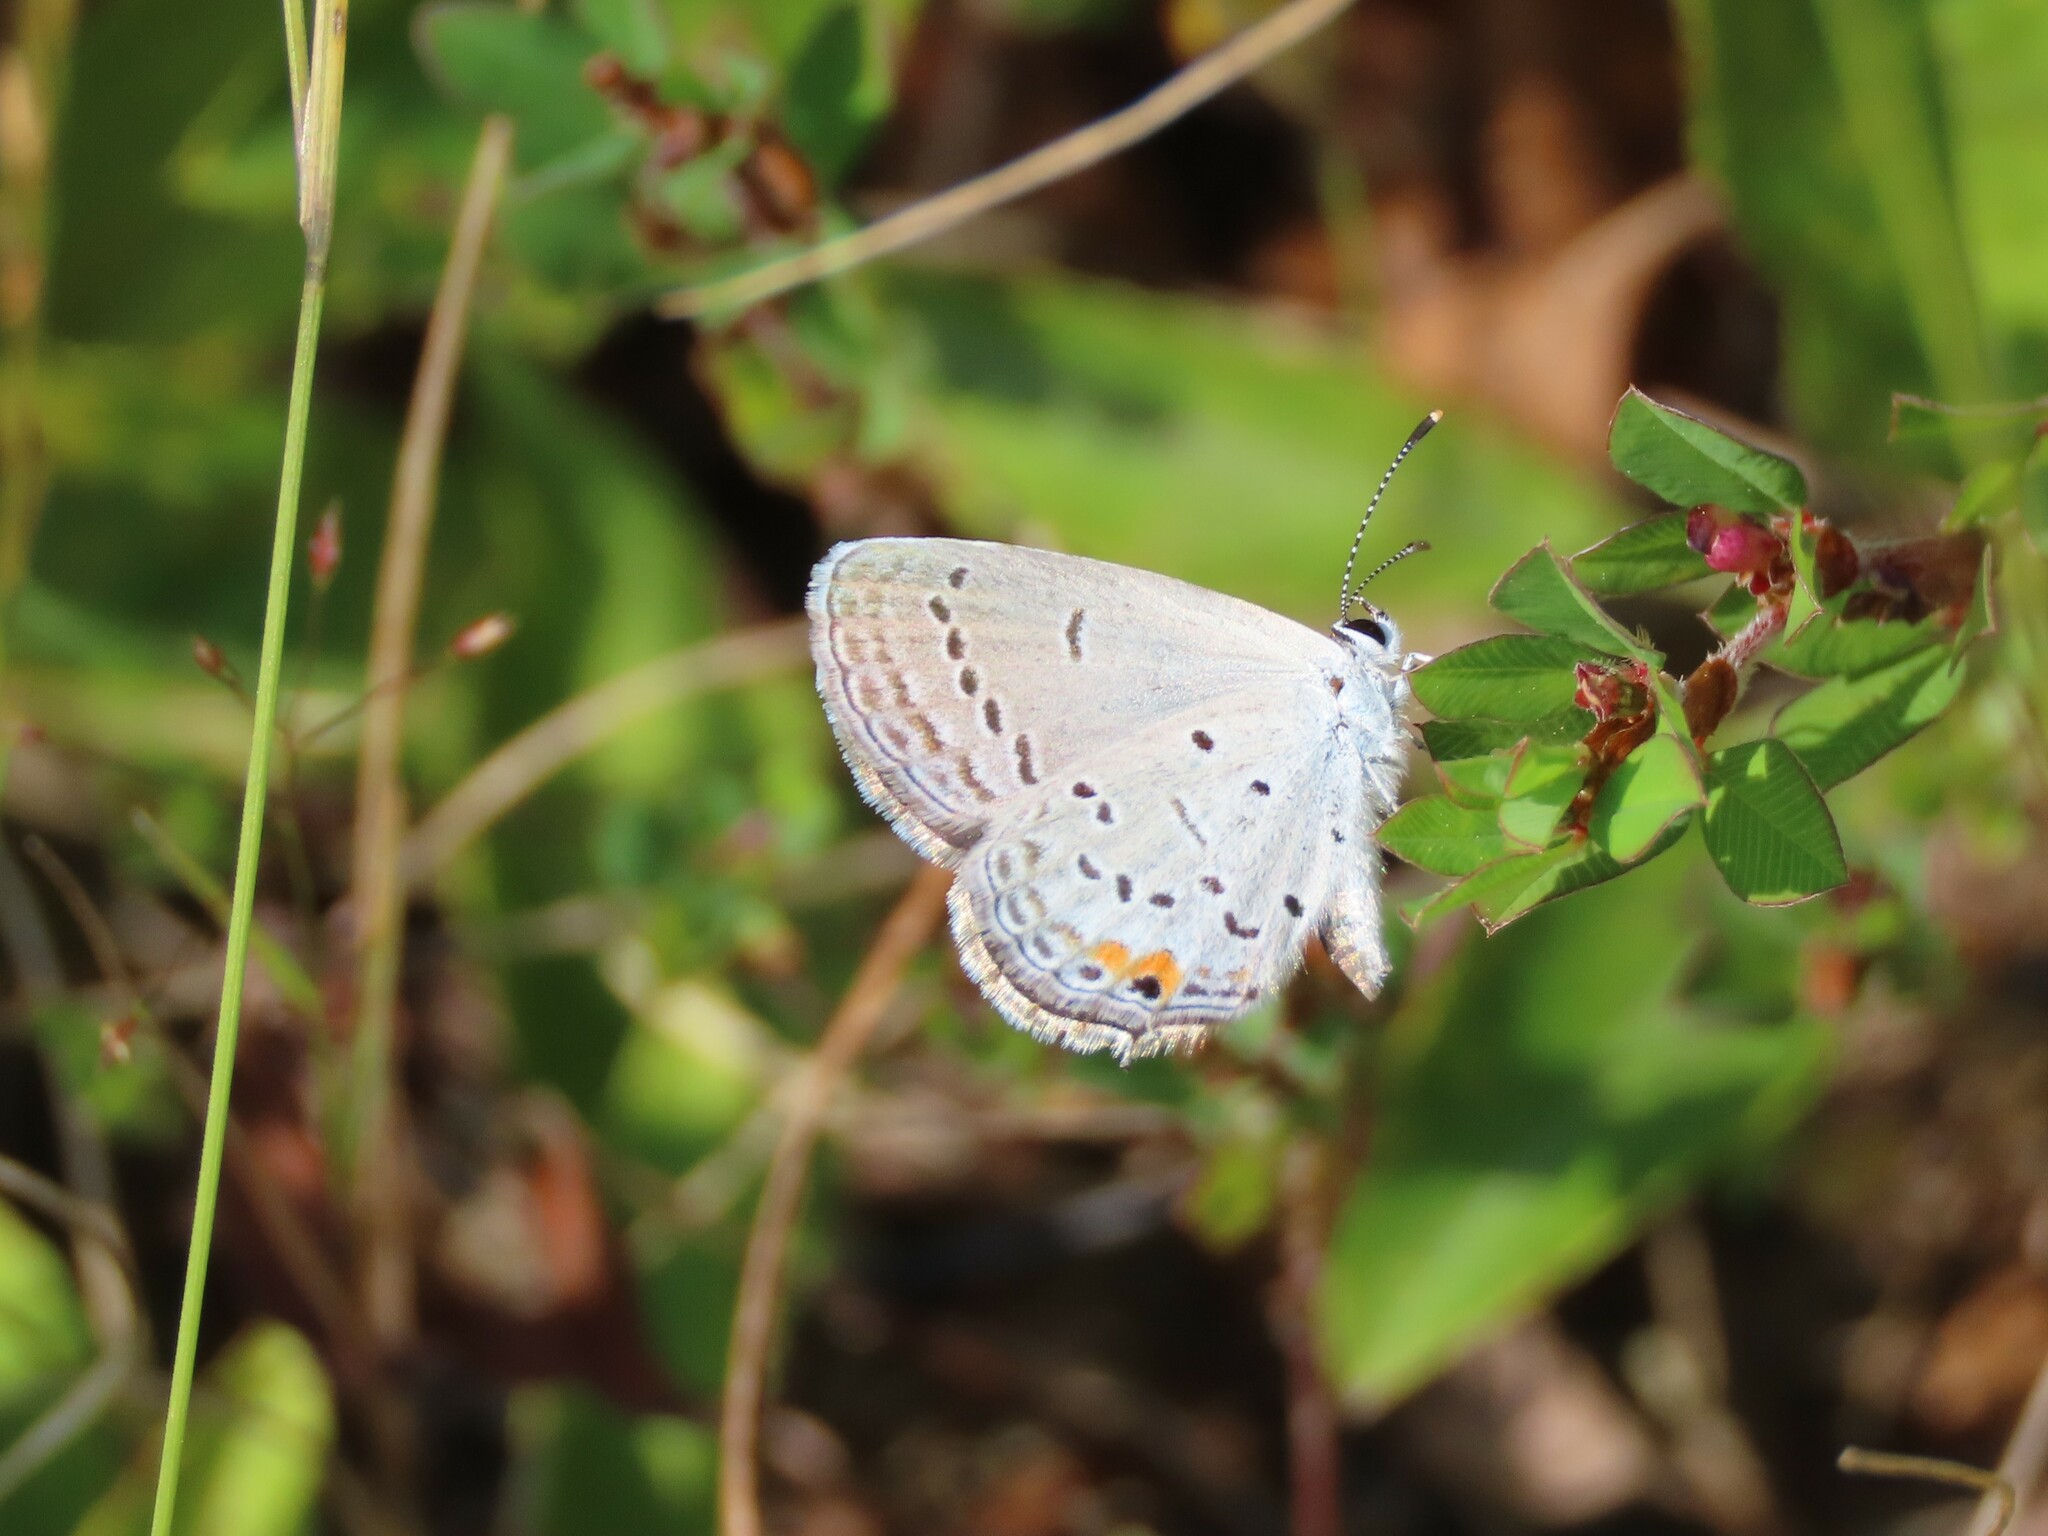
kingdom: Animalia
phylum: Arthropoda
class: Insecta
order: Lepidoptera
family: Lycaenidae
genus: Elkalyce
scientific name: Elkalyce comyntas
